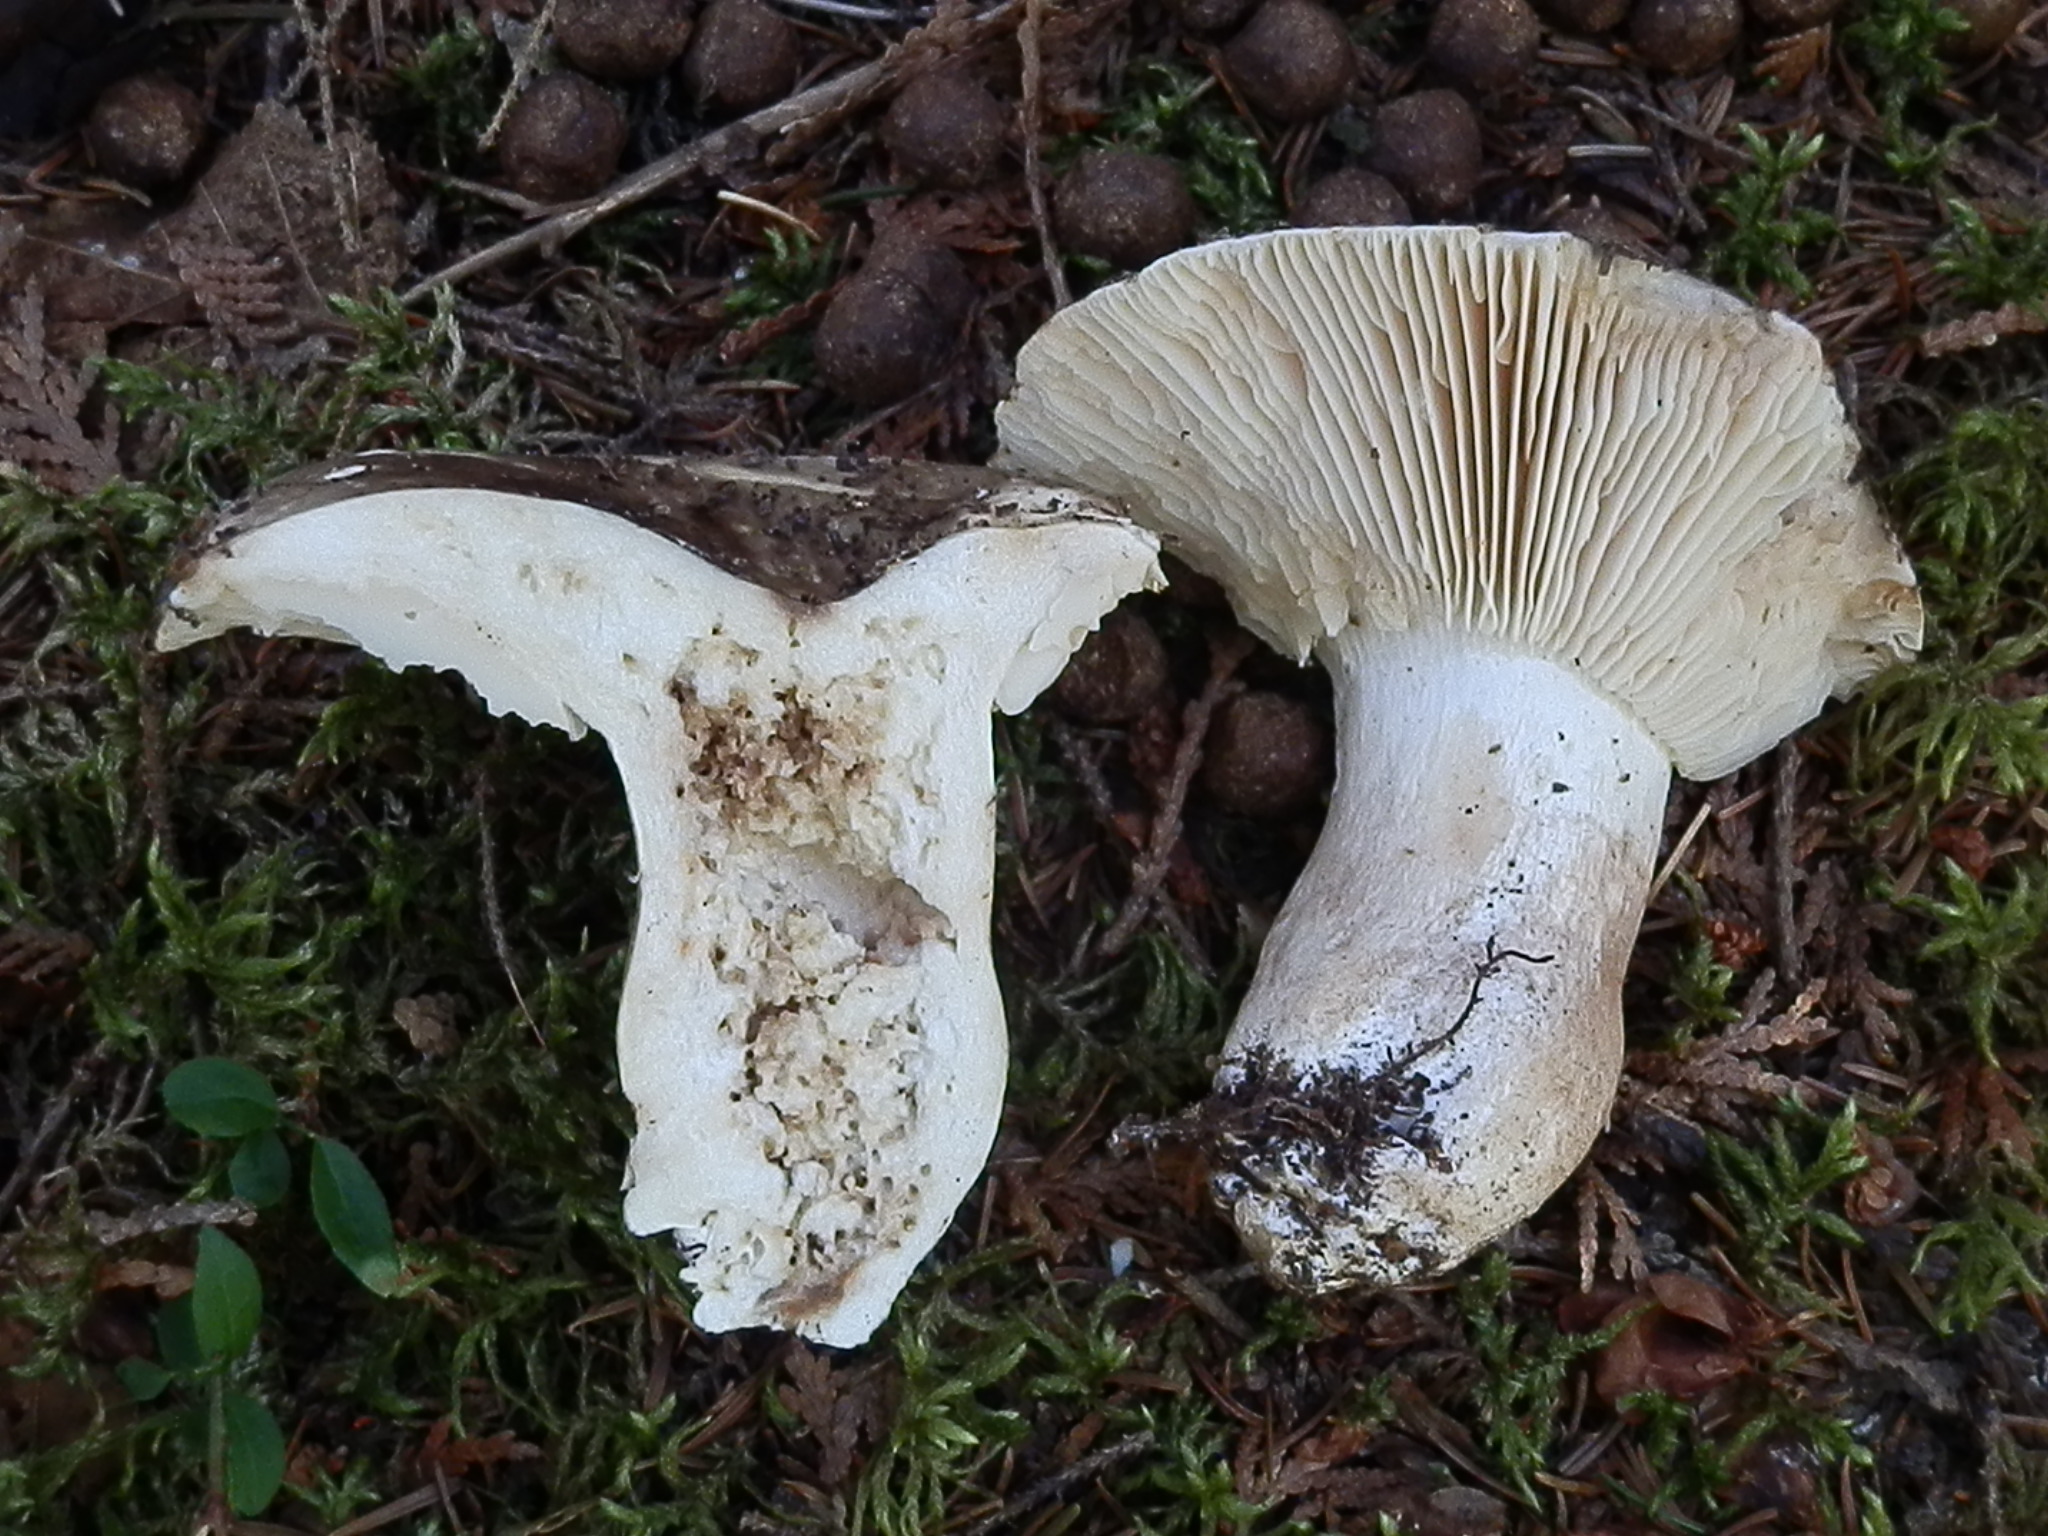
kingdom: Fungi
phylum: Basidiomycota
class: Agaricomycetes
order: Russulales
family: Russulaceae
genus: Russula
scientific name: Russula adusta
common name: Winecork brittlegill
